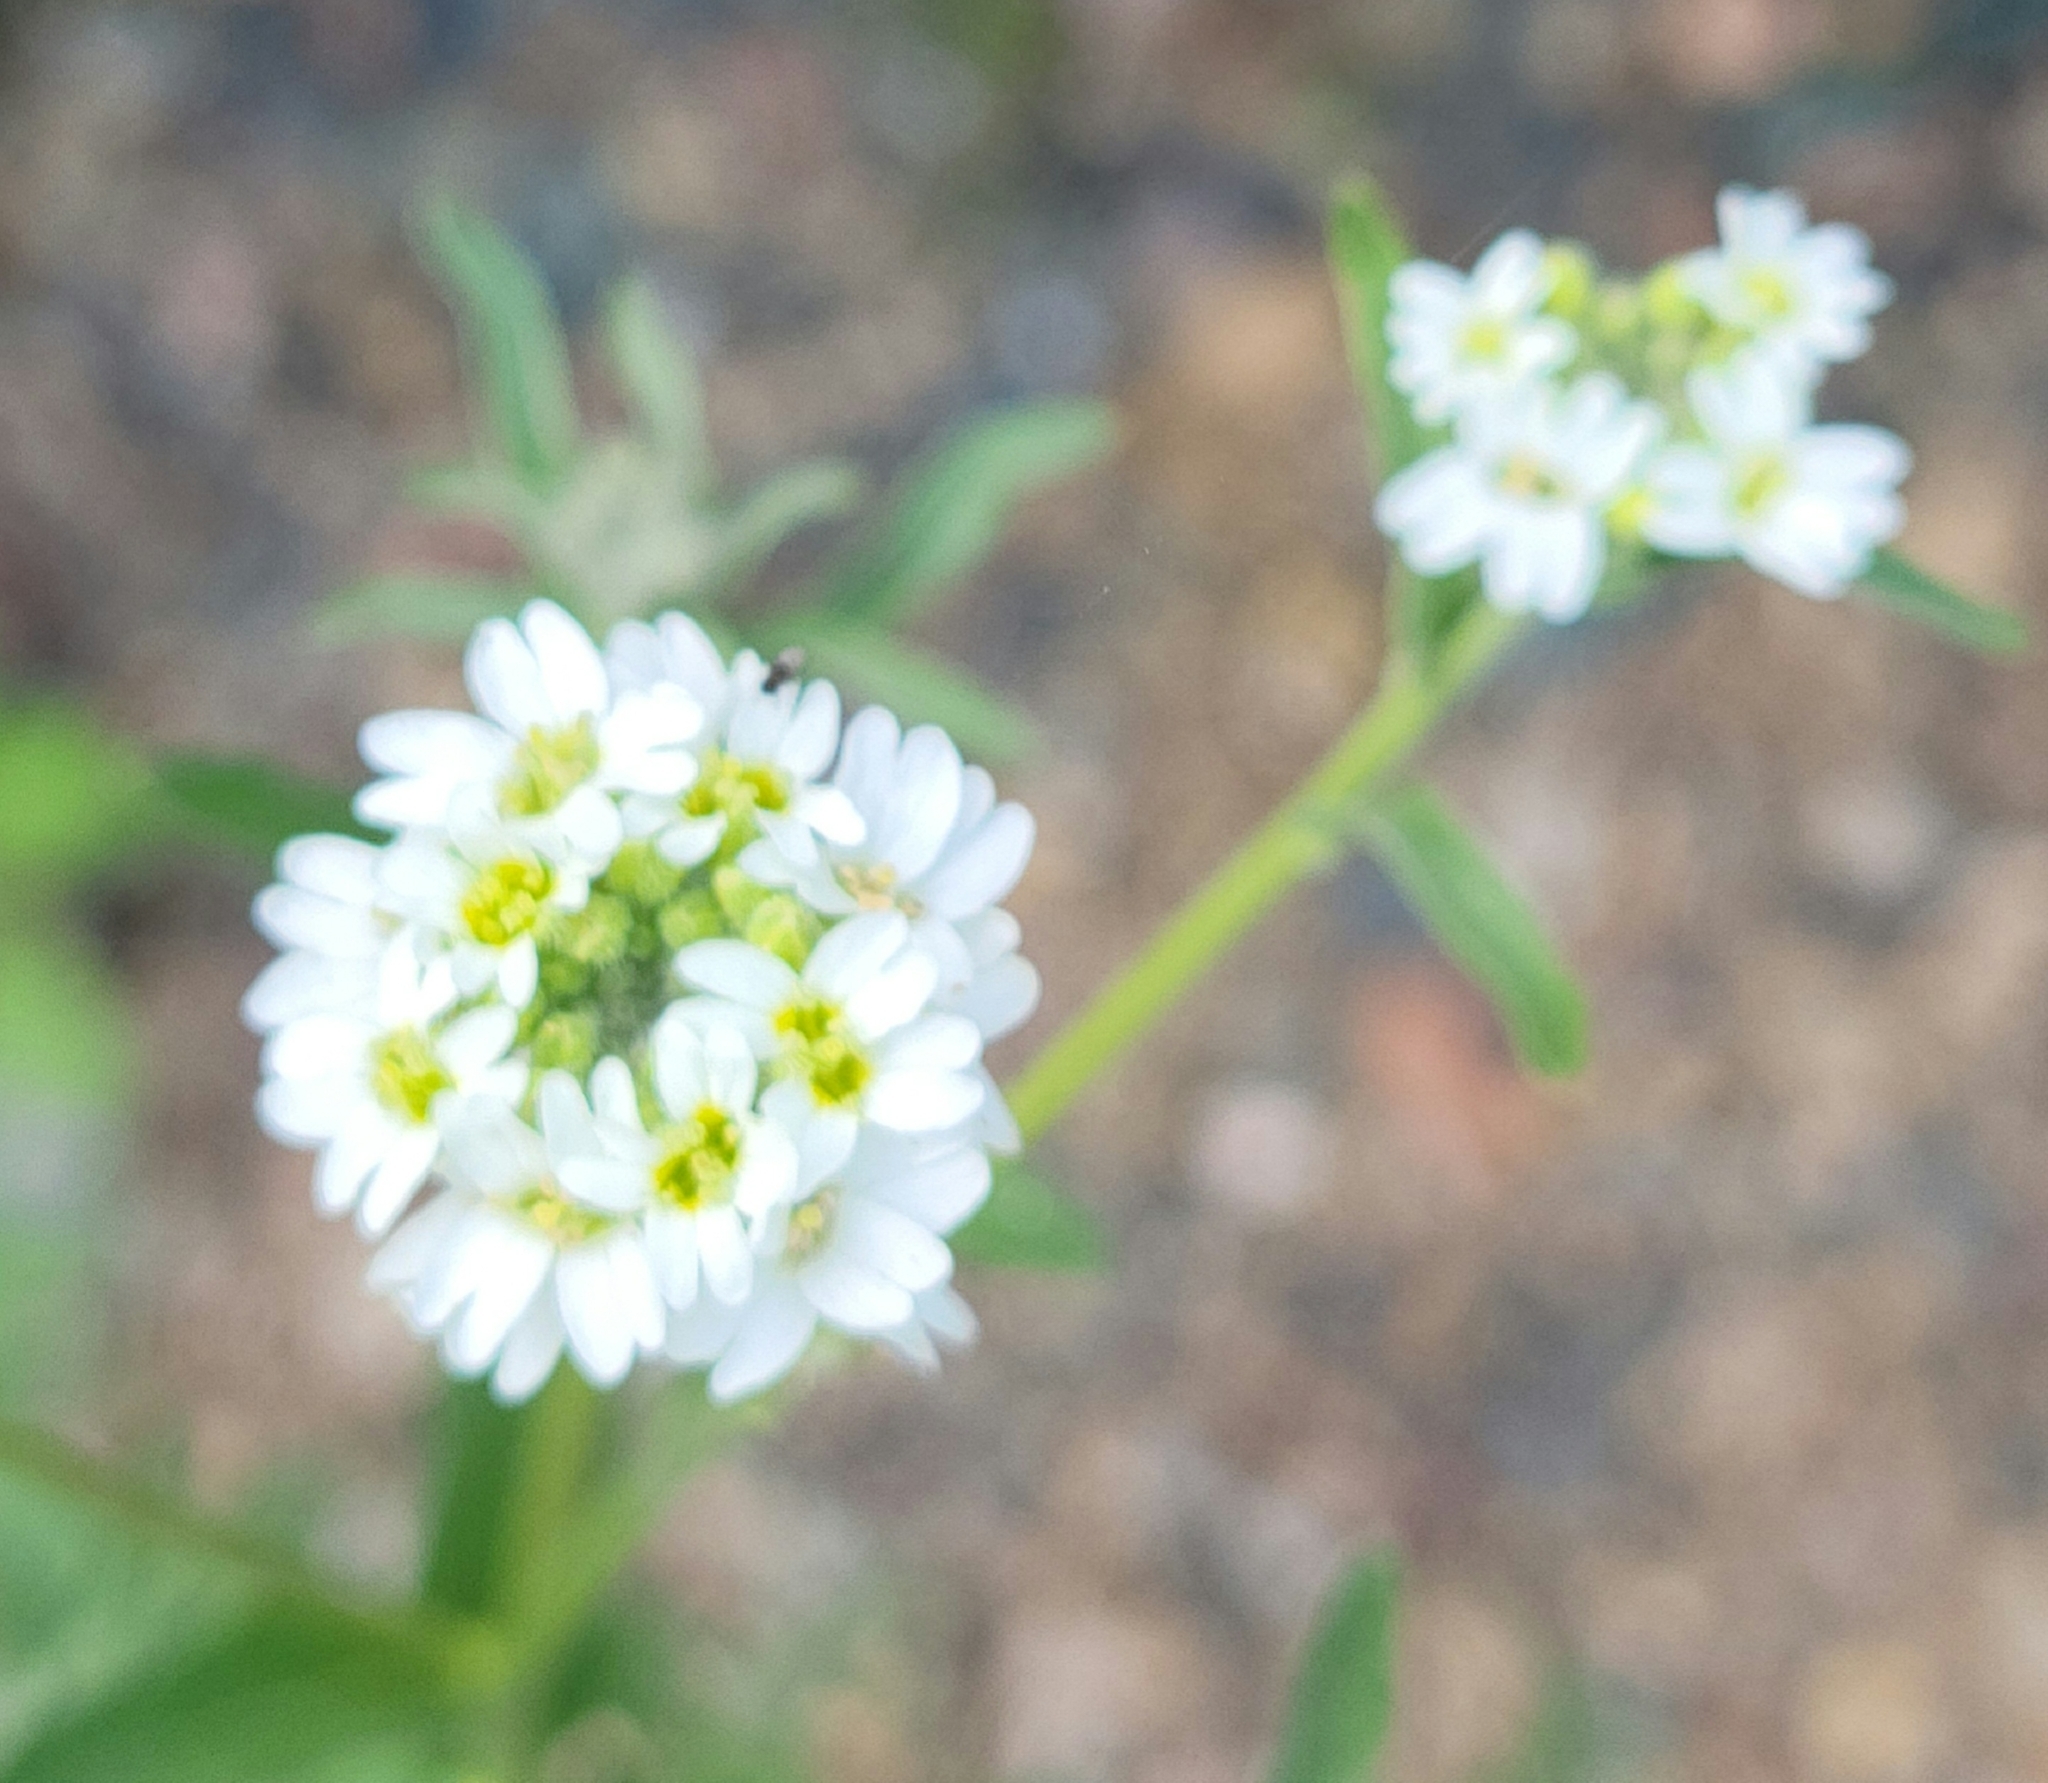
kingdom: Plantae
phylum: Tracheophyta
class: Magnoliopsida
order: Brassicales
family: Brassicaceae
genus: Berteroa
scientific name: Berteroa incana
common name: Hoary alison
